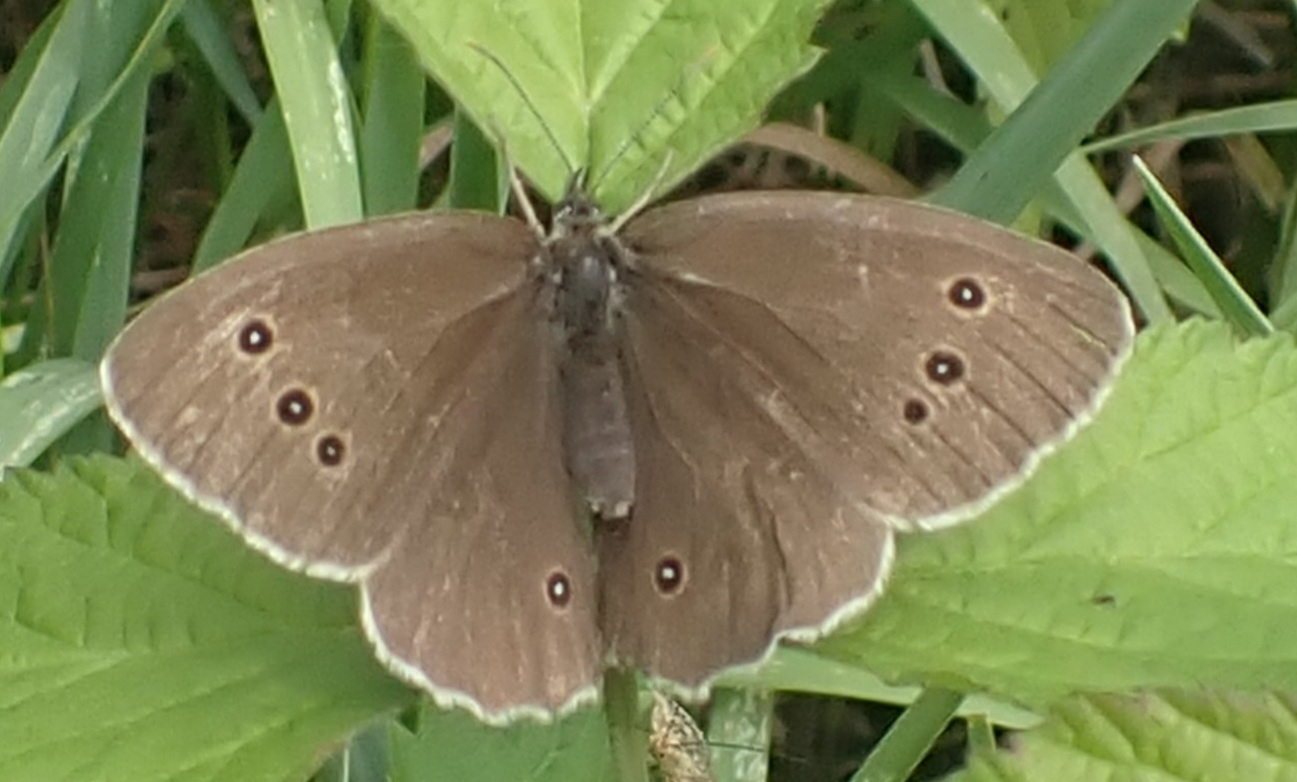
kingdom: Animalia
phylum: Arthropoda
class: Insecta
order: Lepidoptera
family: Nymphalidae
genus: Aphantopus
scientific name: Aphantopus hyperantus
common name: Ringlet
